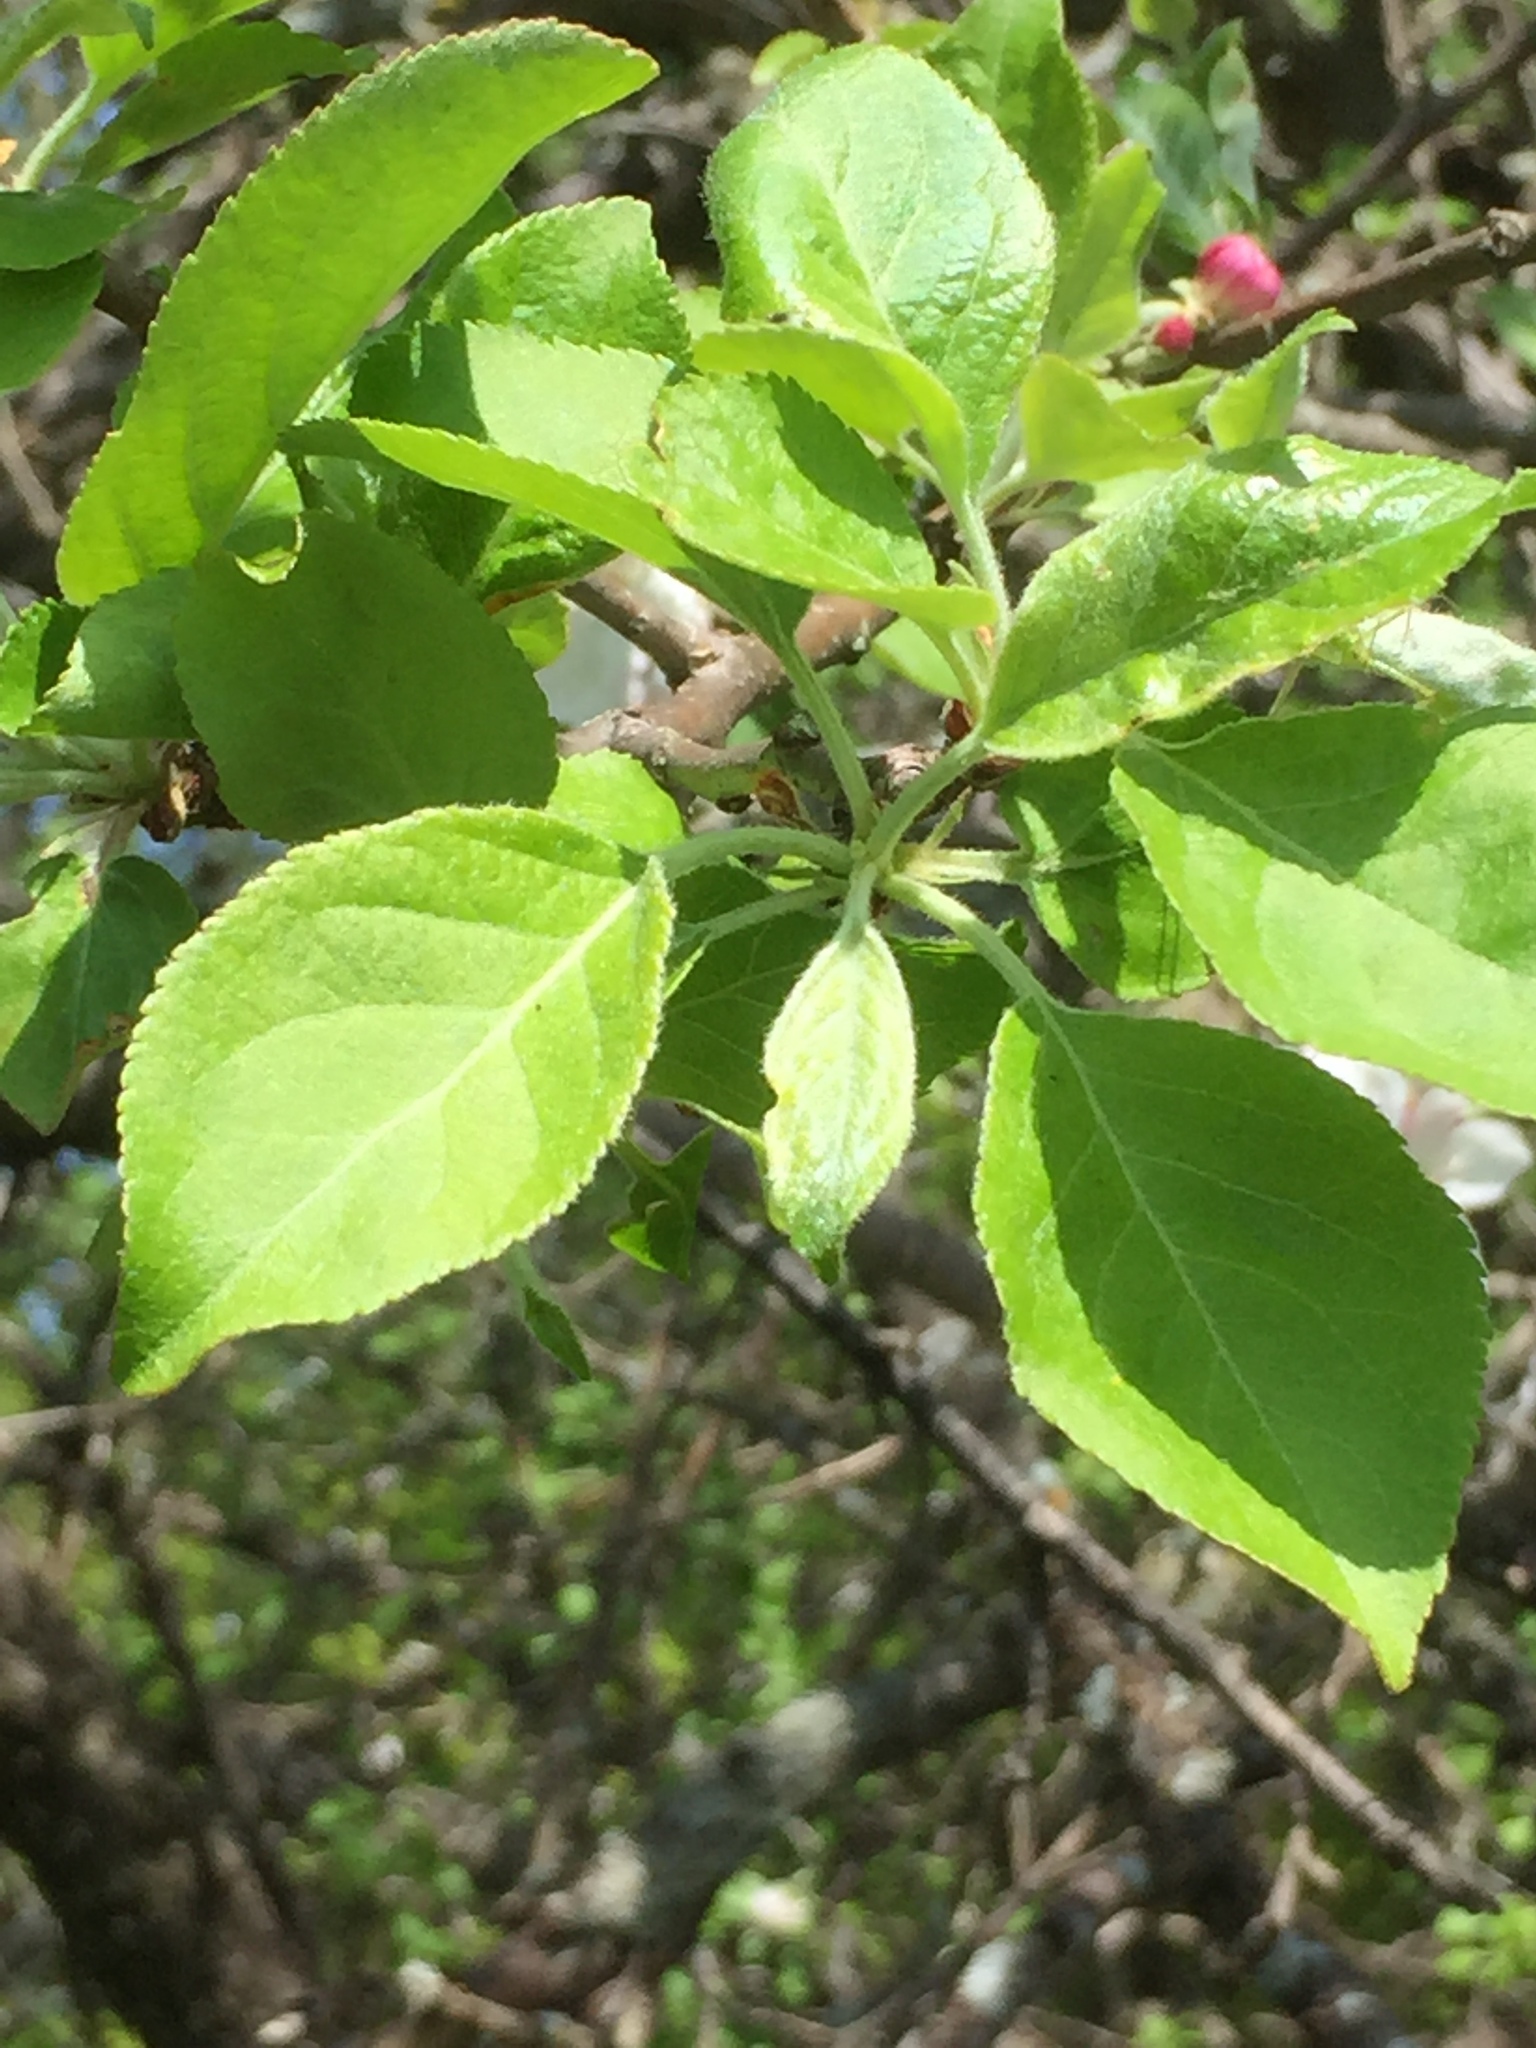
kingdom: Plantae
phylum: Tracheophyta
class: Magnoliopsida
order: Rosales
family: Rosaceae
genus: Malus
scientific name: Malus domestica
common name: Apple
